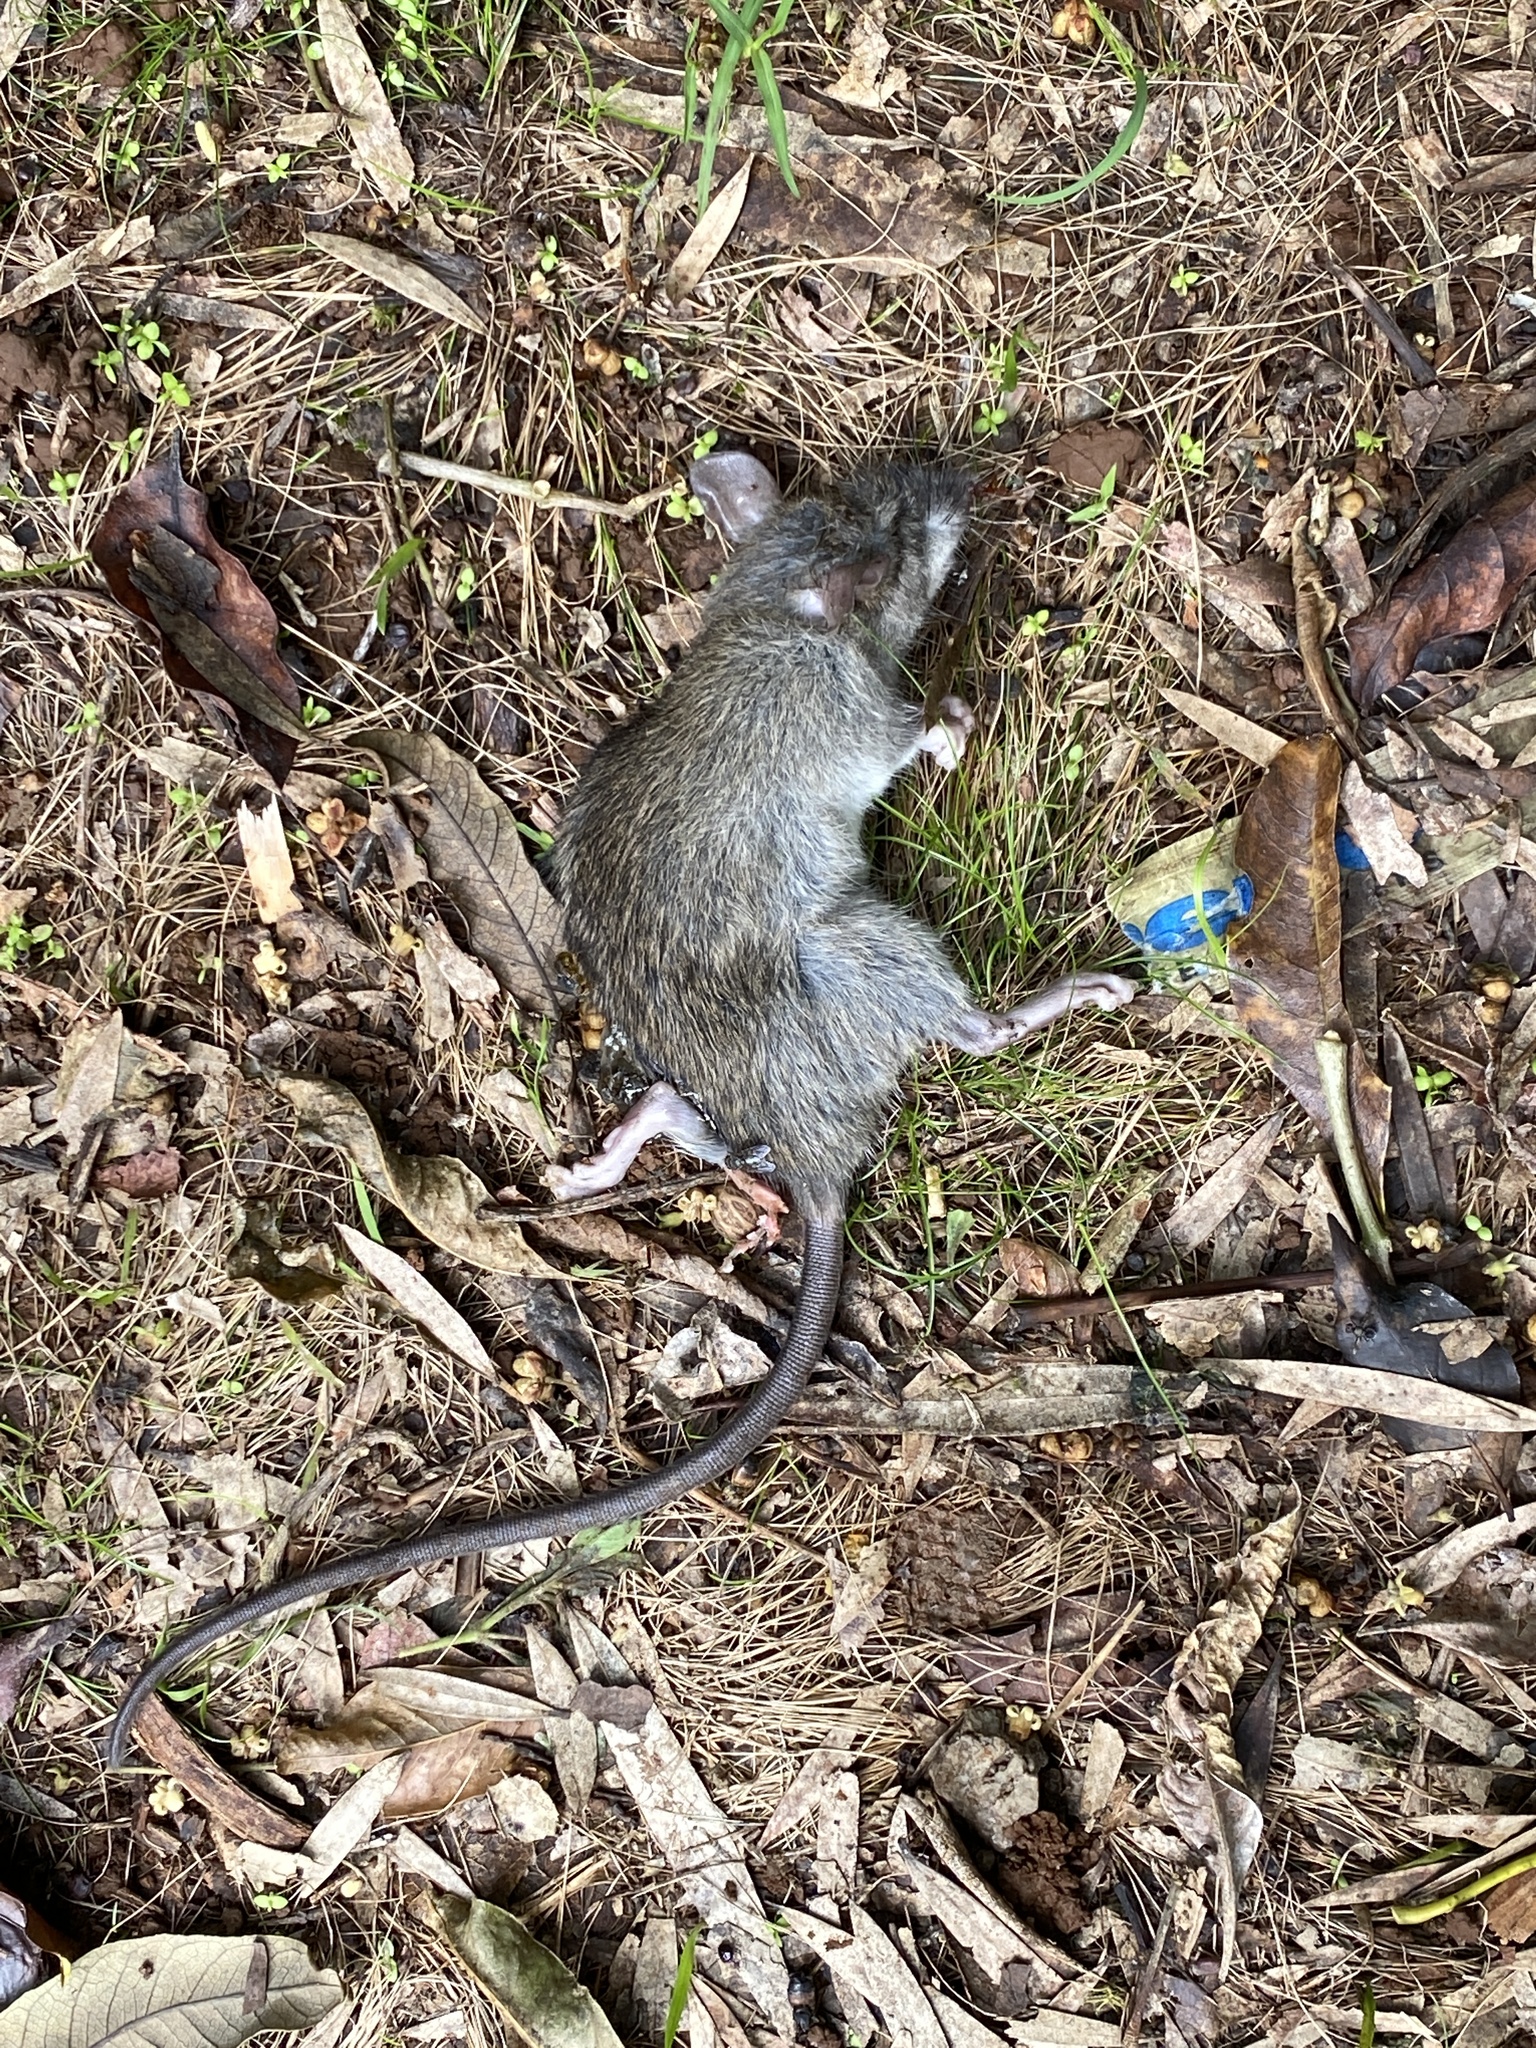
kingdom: Animalia
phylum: Chordata
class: Mammalia
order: Rodentia
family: Muridae
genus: Rattus
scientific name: Rattus rattus
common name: Black rat
